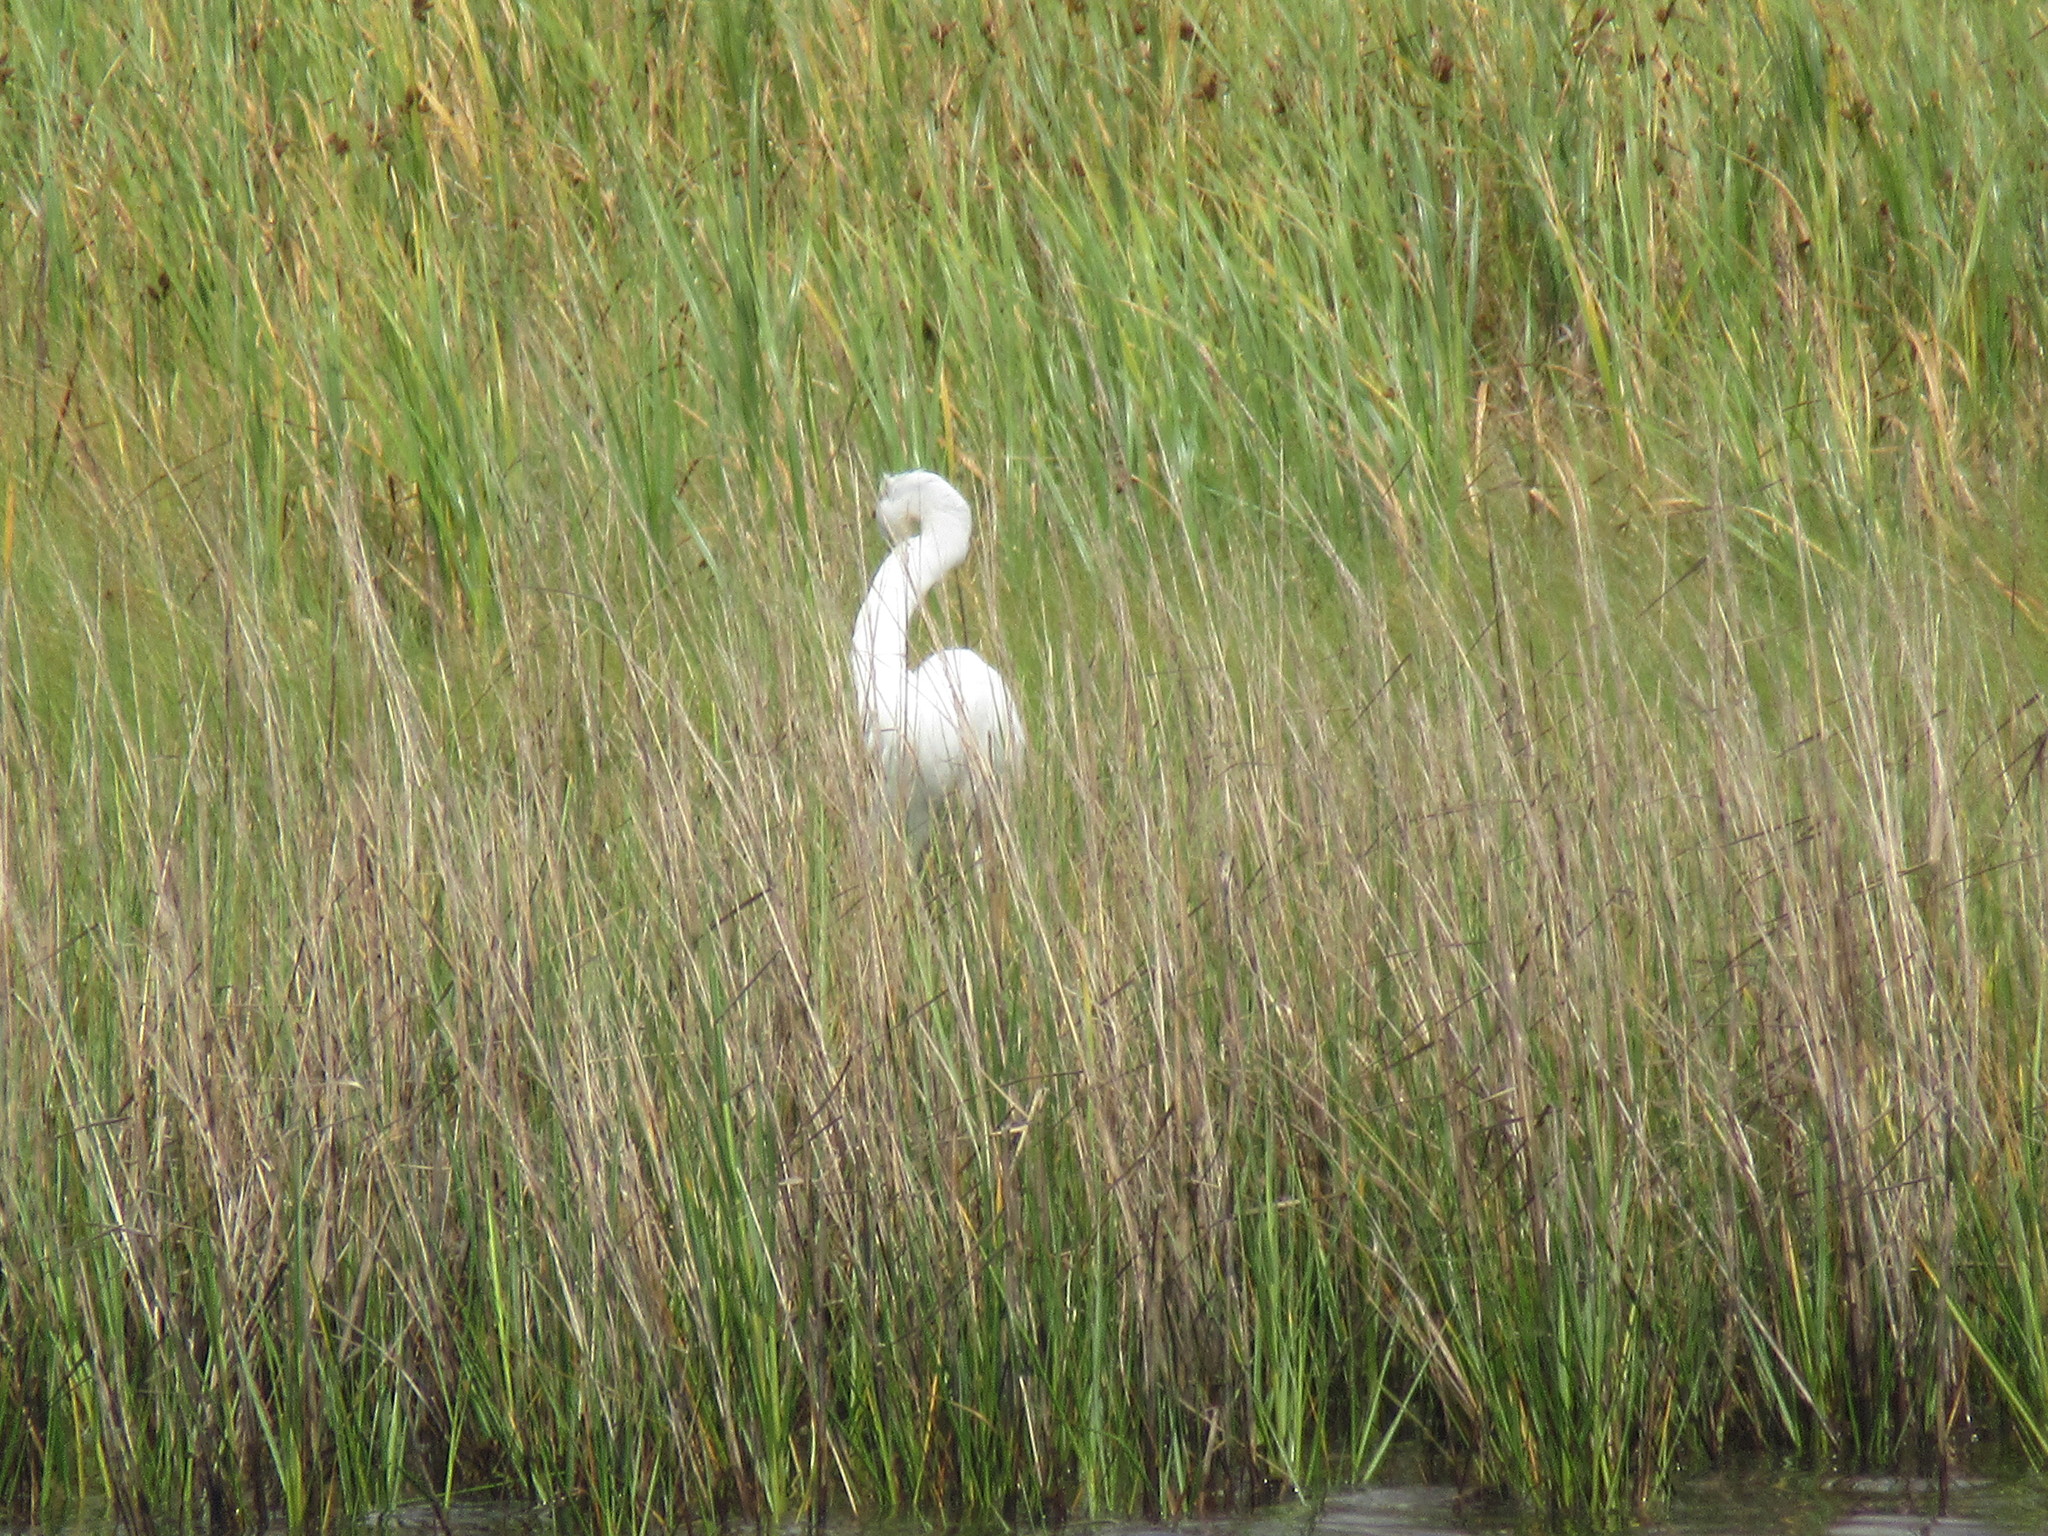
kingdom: Animalia
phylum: Chordata
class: Aves
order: Pelecaniformes
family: Ardeidae
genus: Ardea
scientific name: Ardea alba
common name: Great egret
